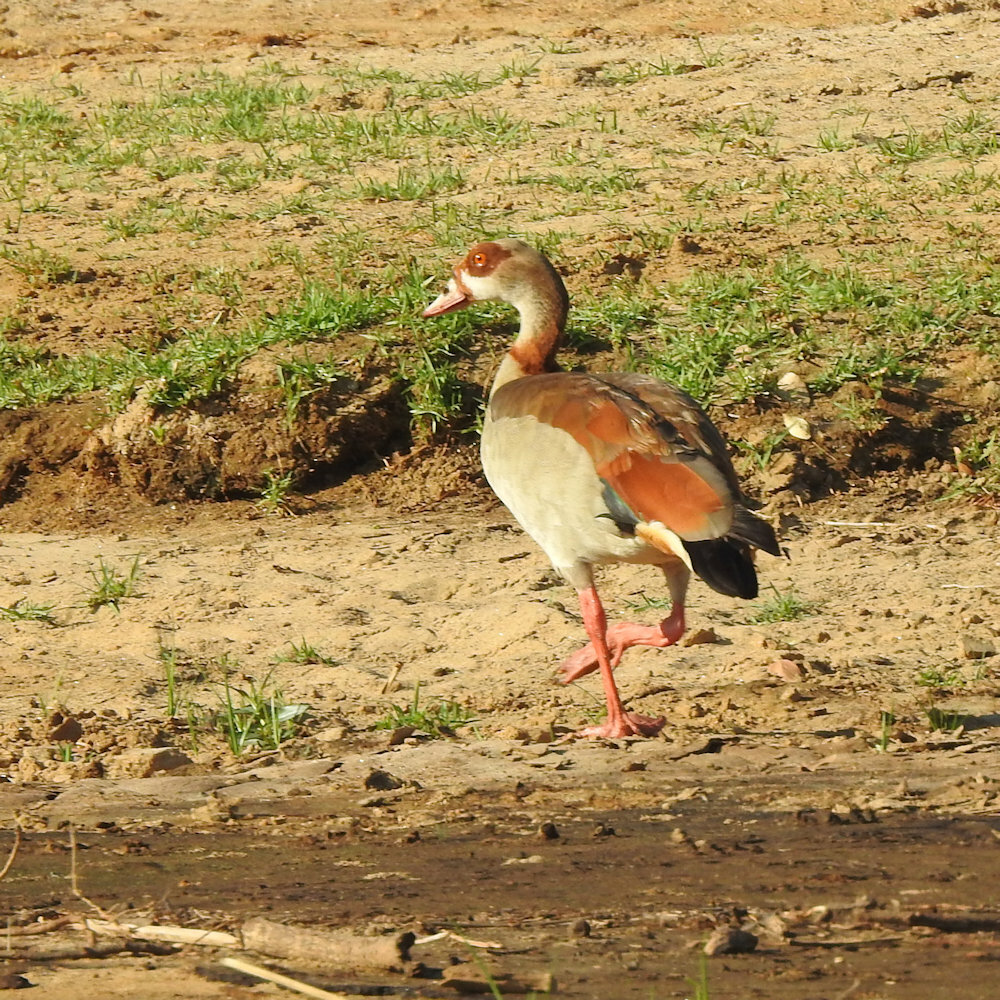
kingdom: Animalia
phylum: Chordata
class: Aves
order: Anseriformes
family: Anatidae
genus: Alopochen
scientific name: Alopochen aegyptiaca
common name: Egyptian goose
